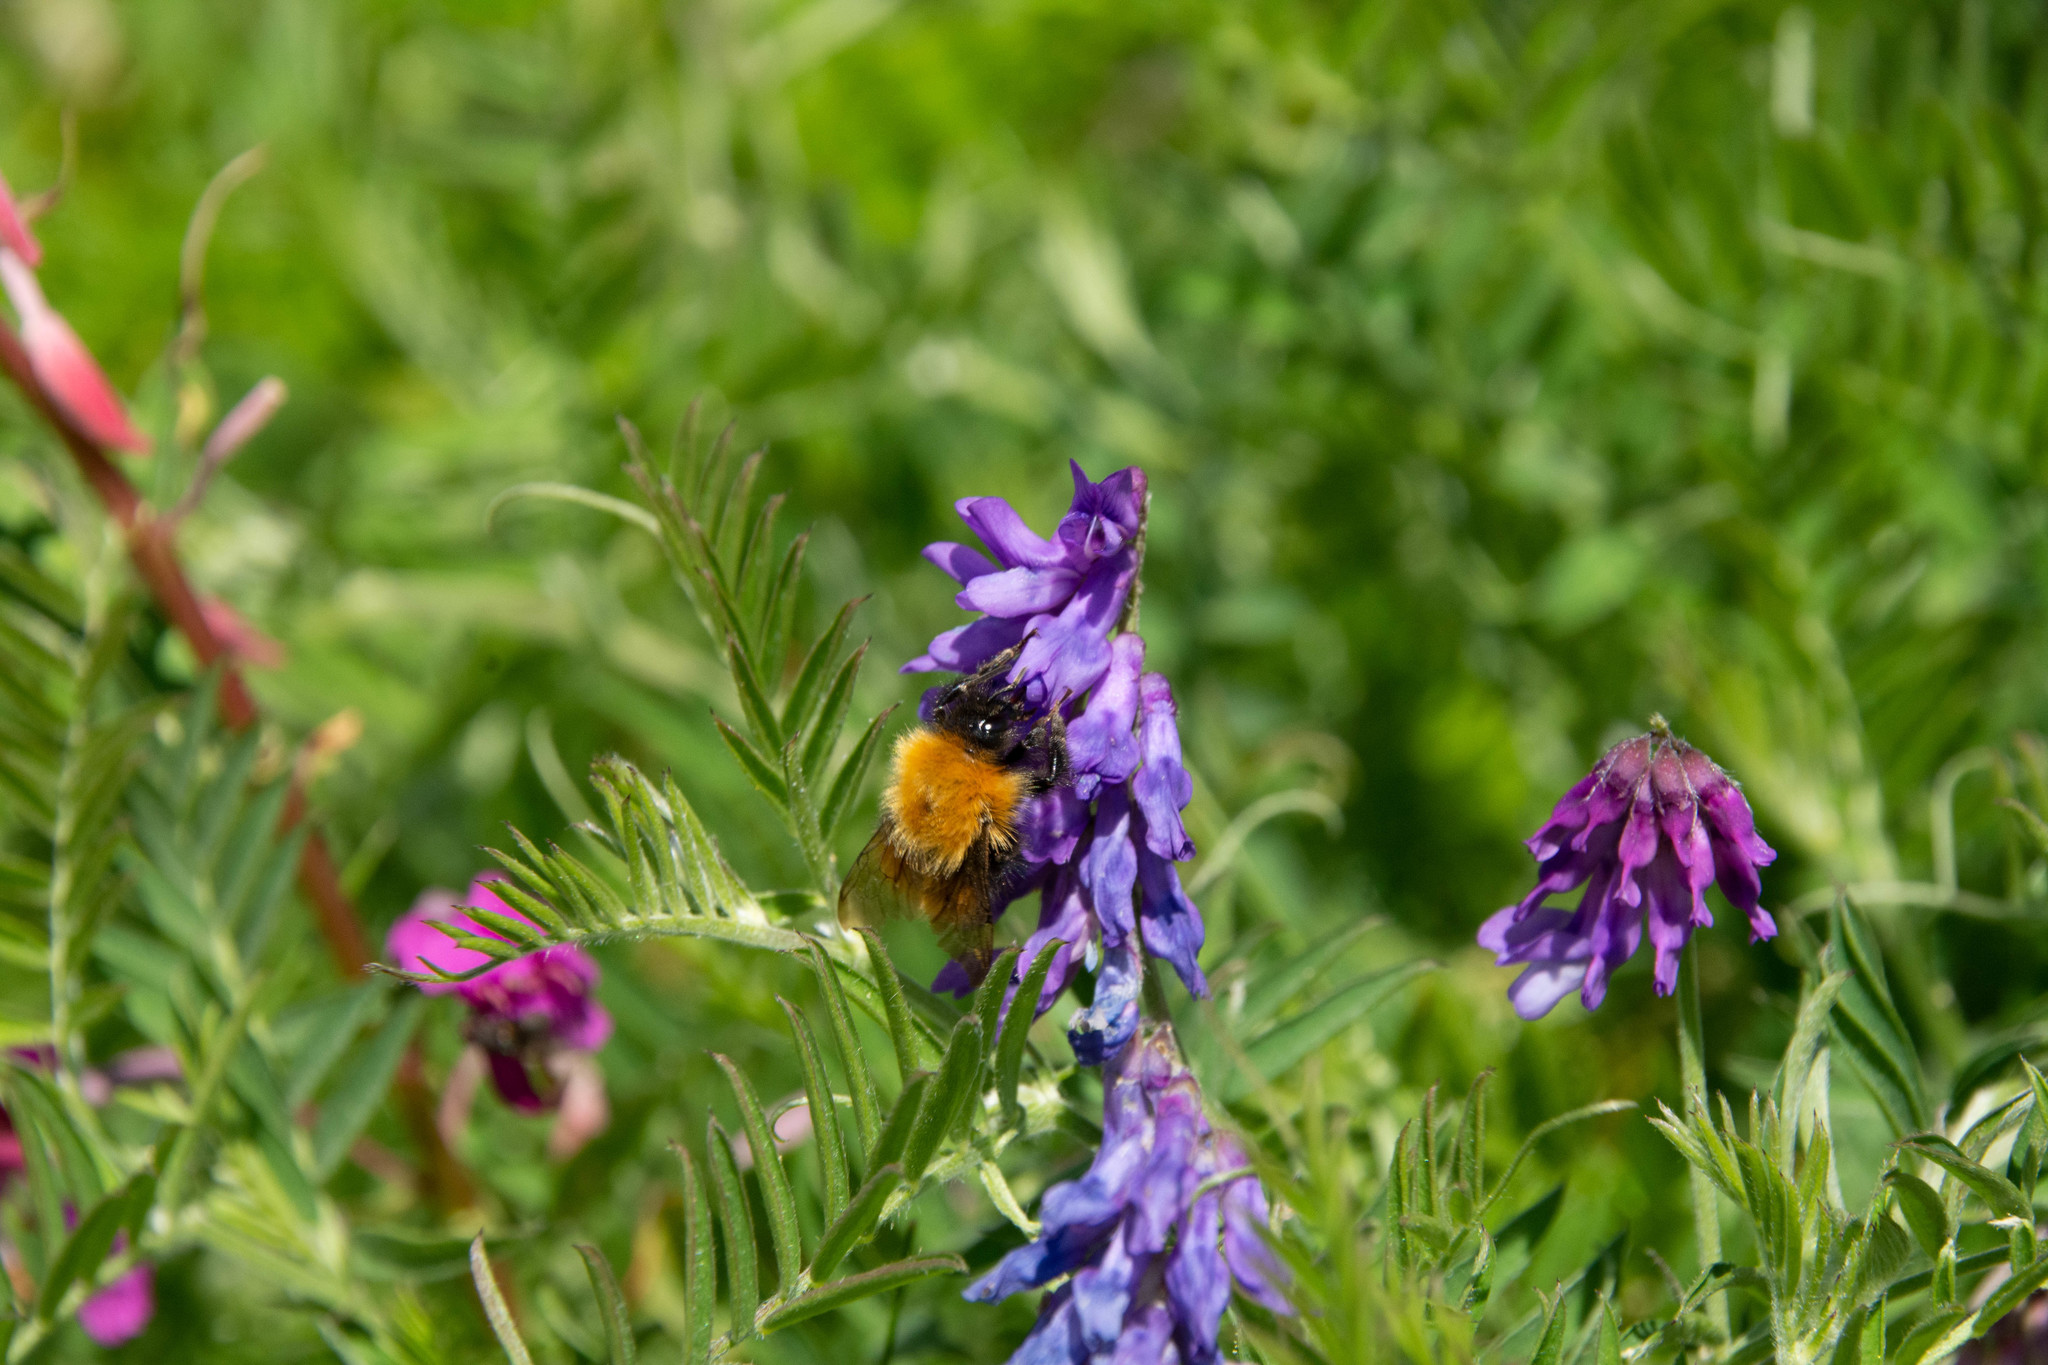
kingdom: Plantae
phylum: Tracheophyta
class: Magnoliopsida
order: Fabales
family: Fabaceae
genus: Vicia
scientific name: Vicia cracca
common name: Bird vetch
